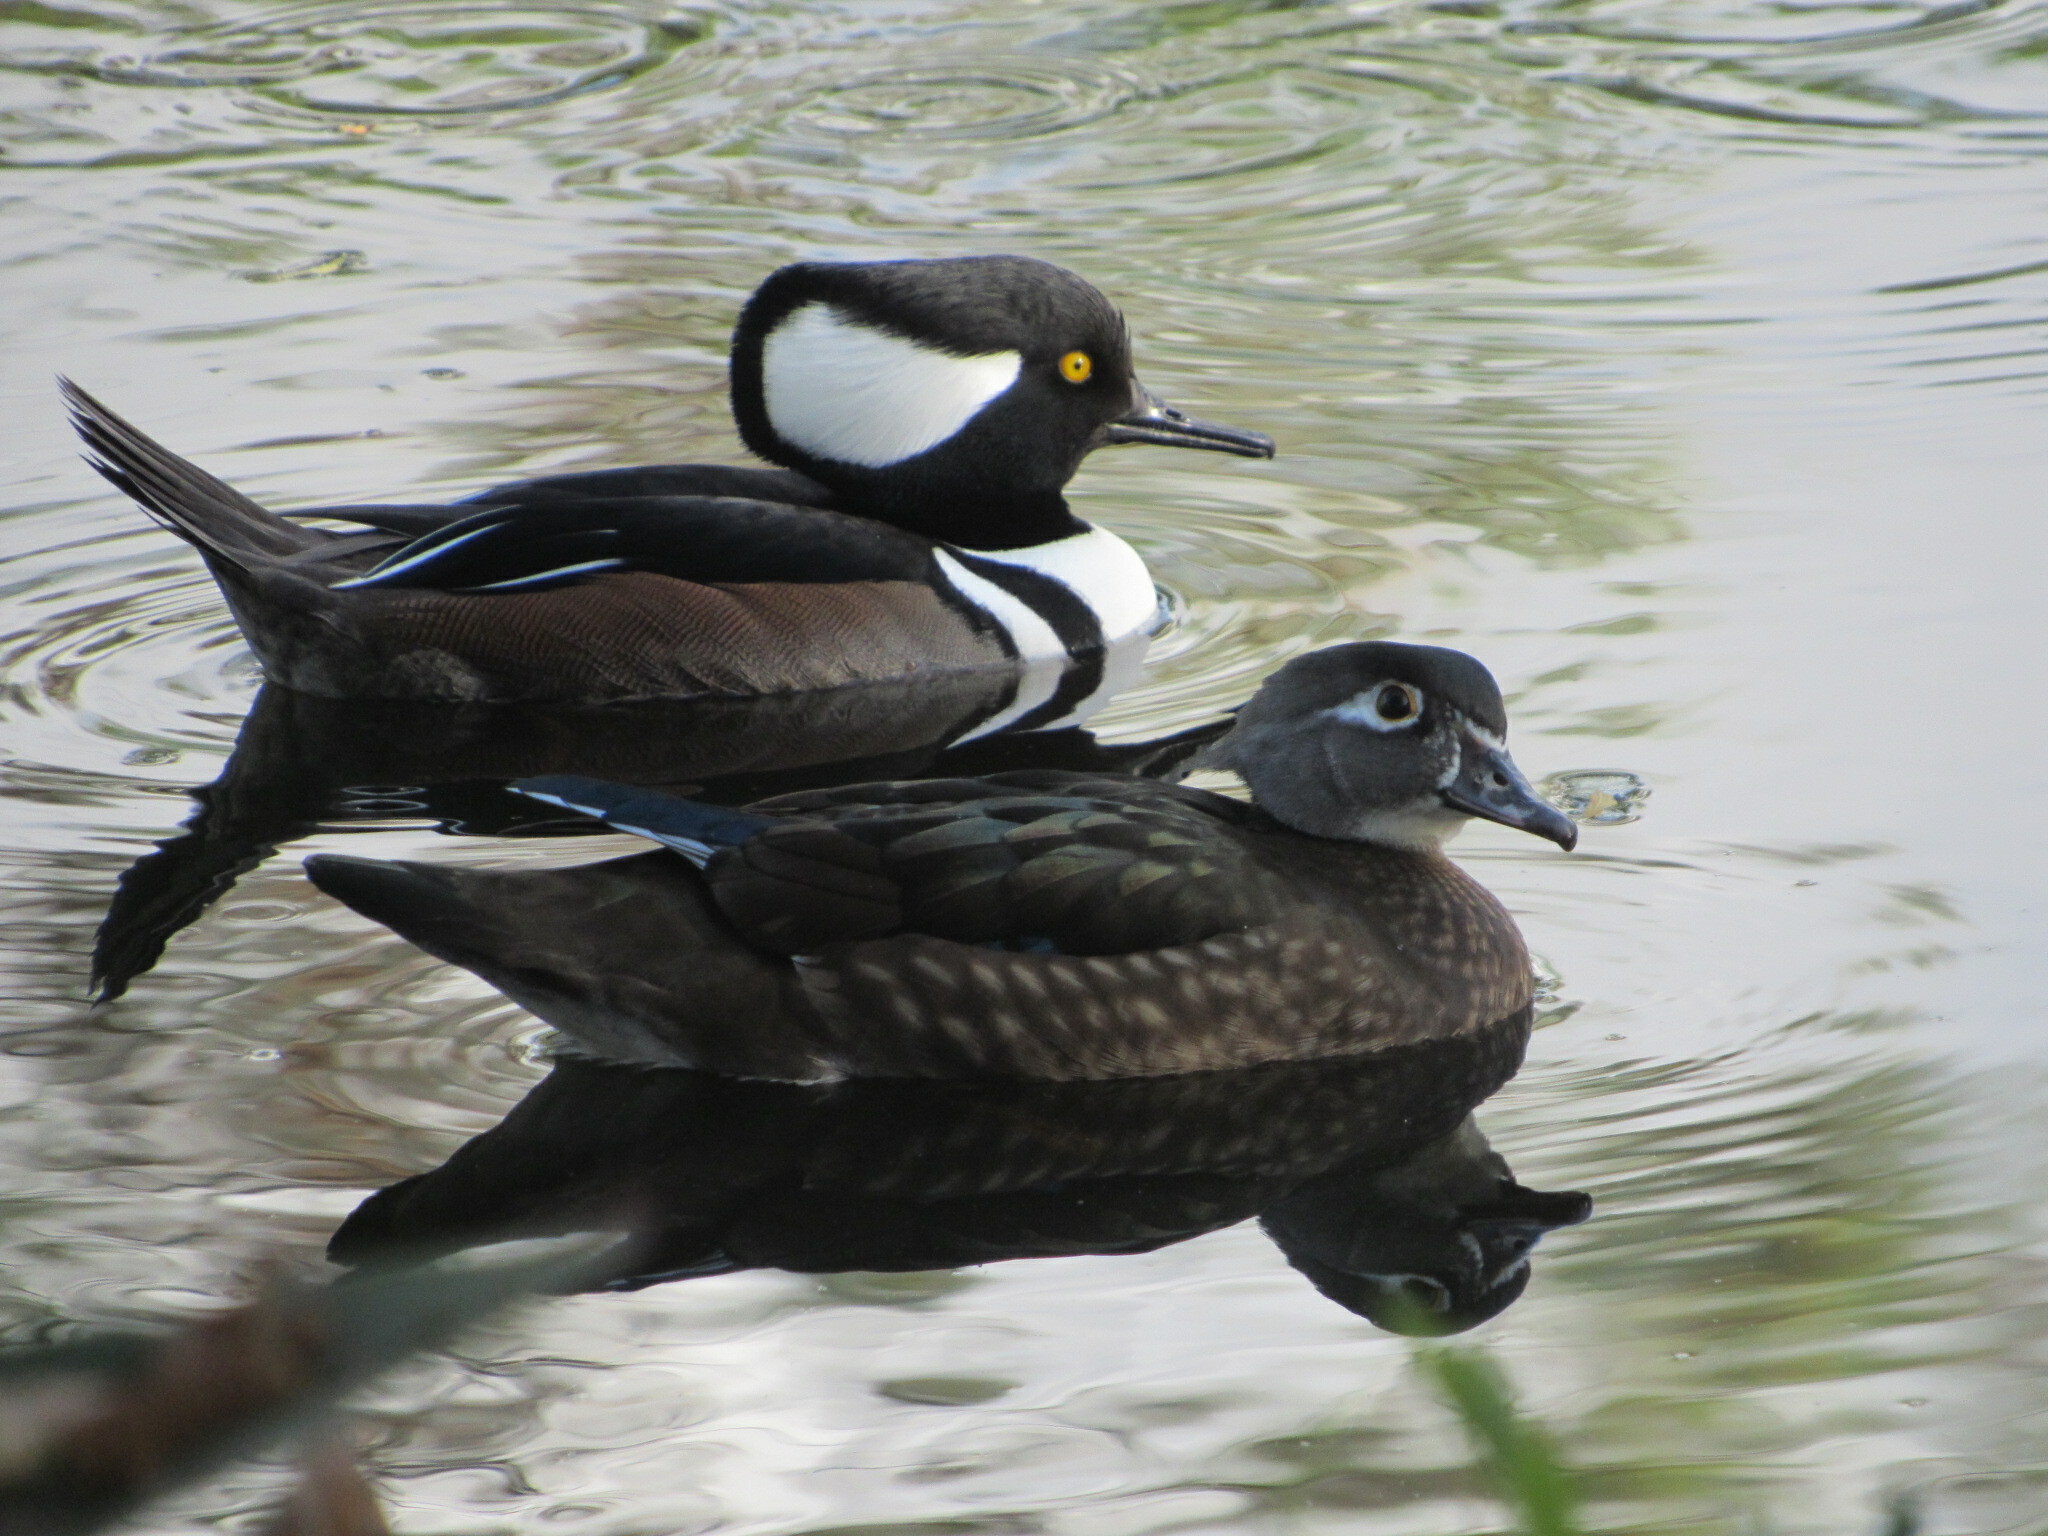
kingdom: Animalia
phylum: Chordata
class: Aves
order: Anseriformes
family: Anatidae
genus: Aix
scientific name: Aix sponsa
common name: Wood duck
